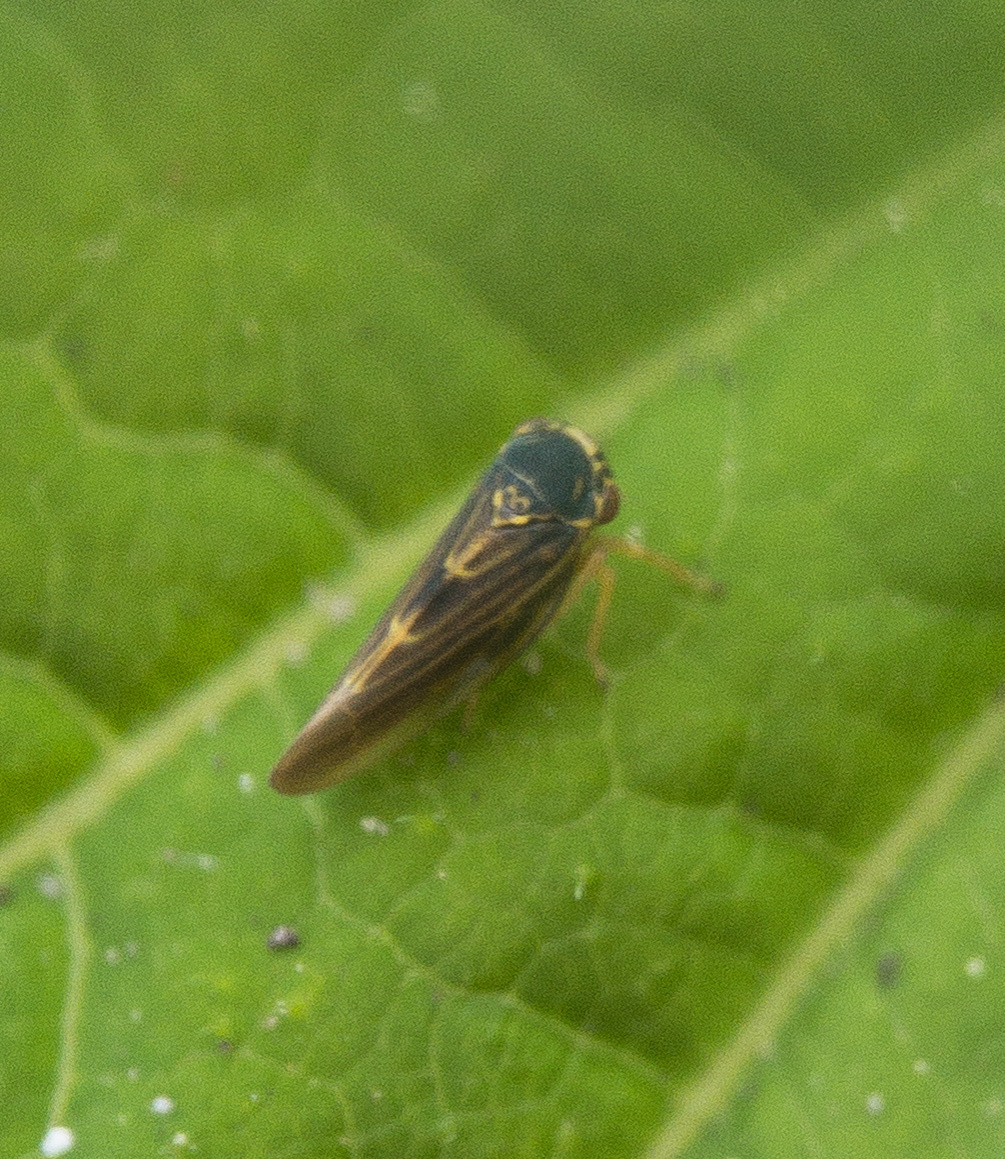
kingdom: Animalia
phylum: Arthropoda
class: Insecta
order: Hemiptera
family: Cicadellidae
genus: Agalliopsis
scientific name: Agalliopsis novella
